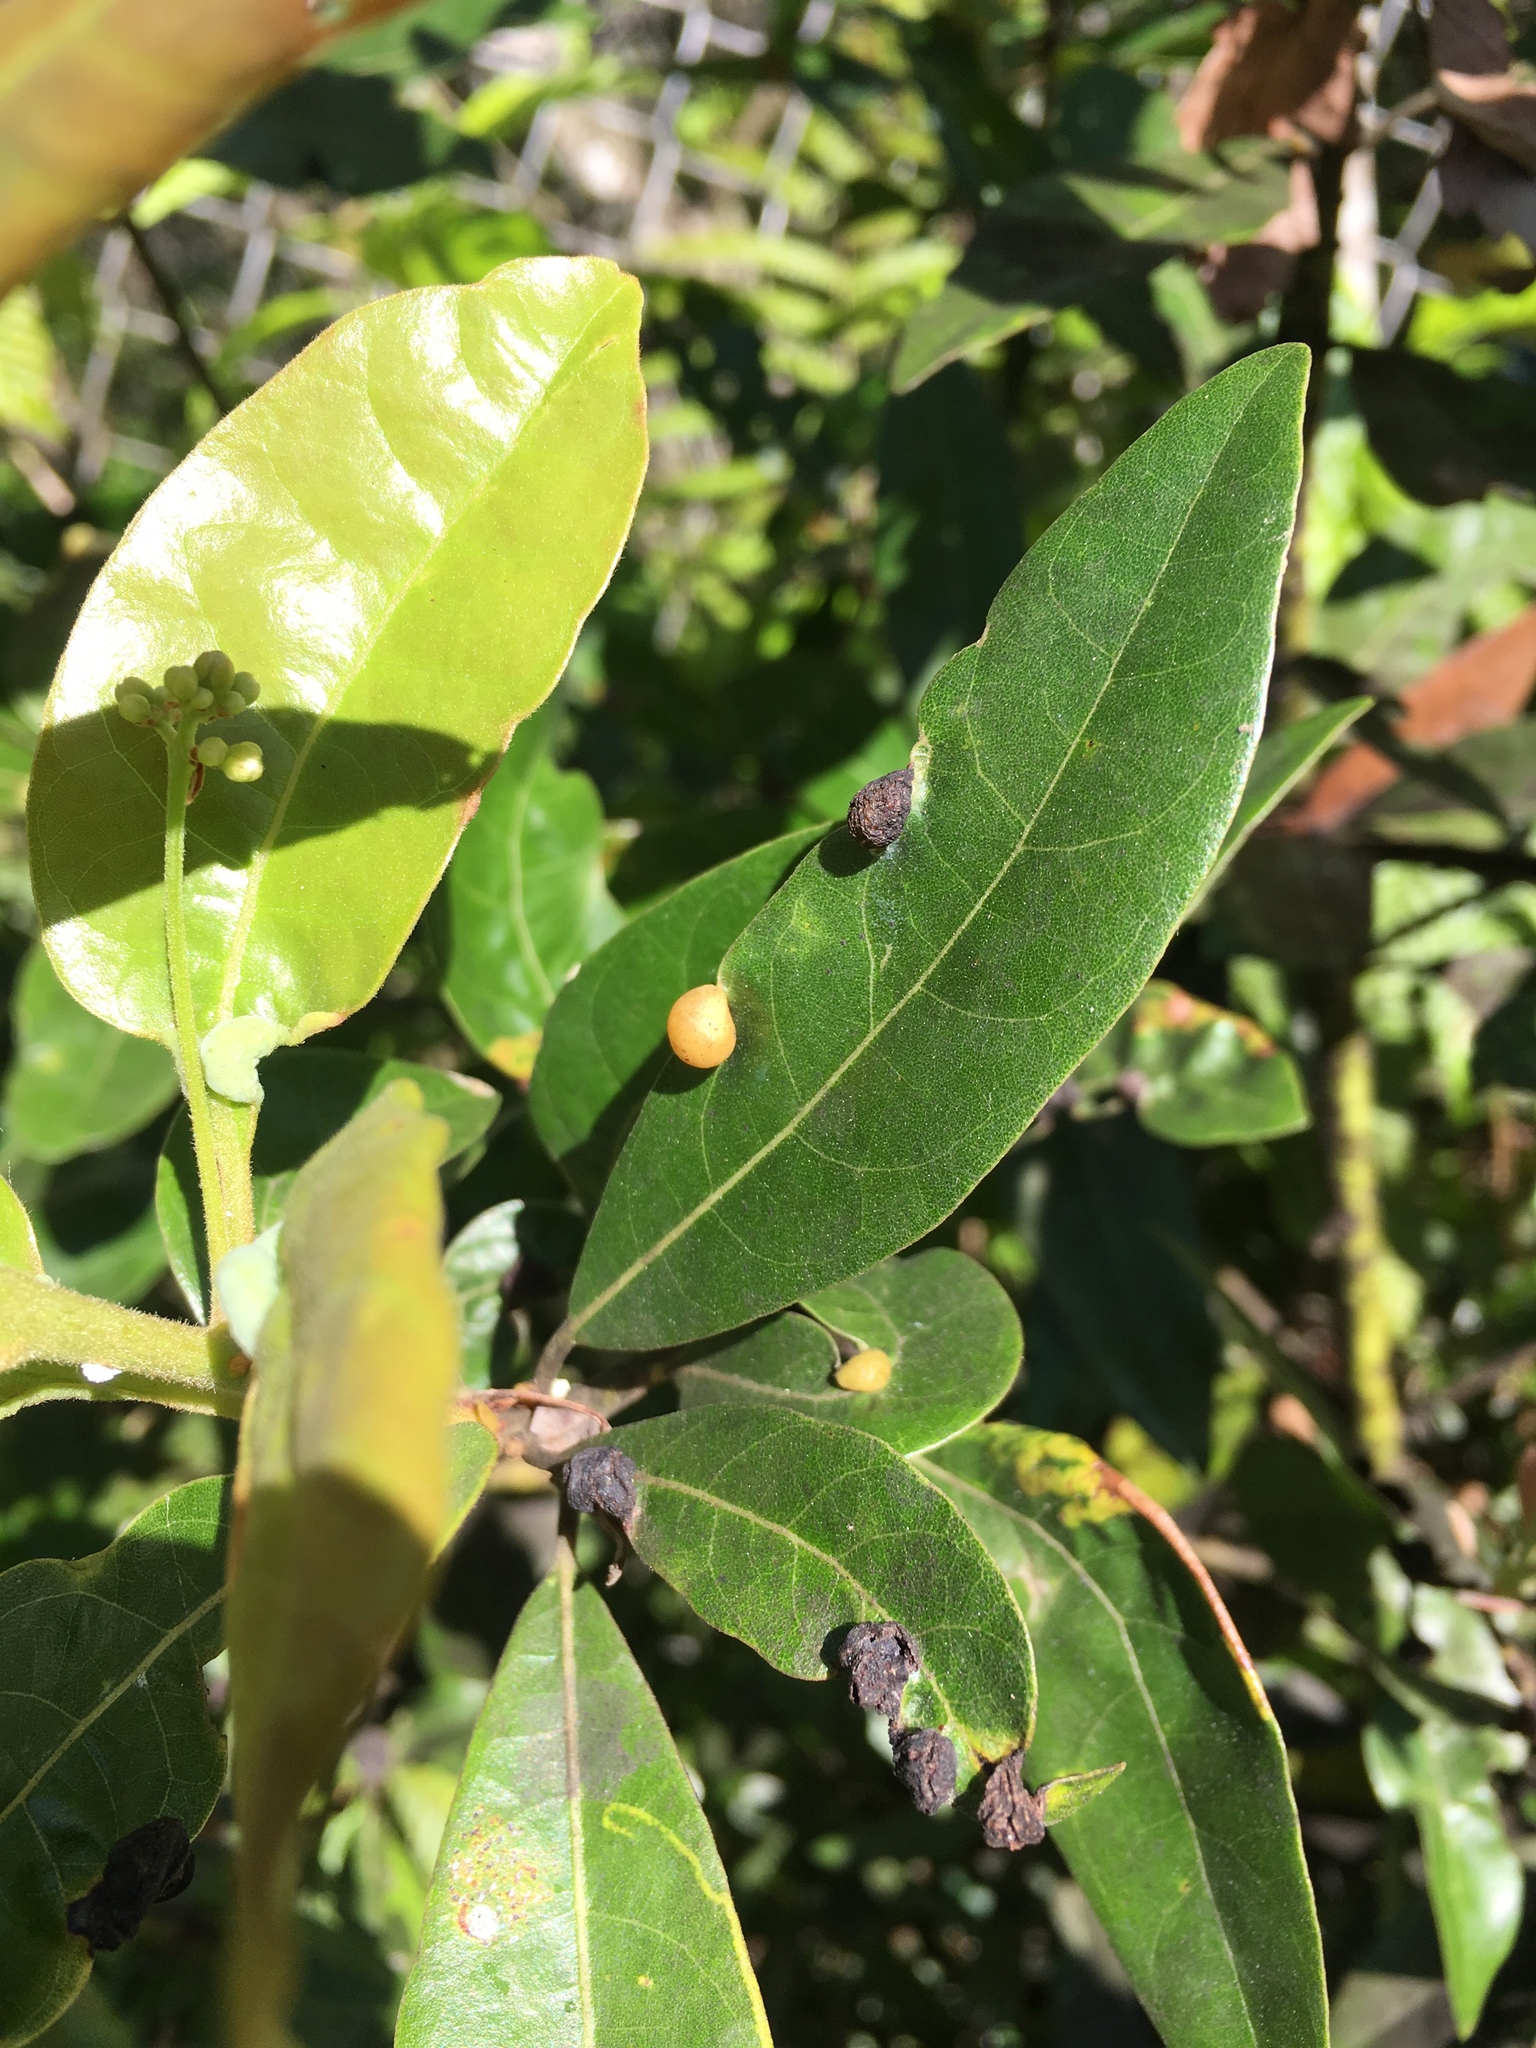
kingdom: Animalia
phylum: Arthropoda
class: Insecta
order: Hemiptera
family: Triozidae
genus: Trioza
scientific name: Trioza magnoliae
